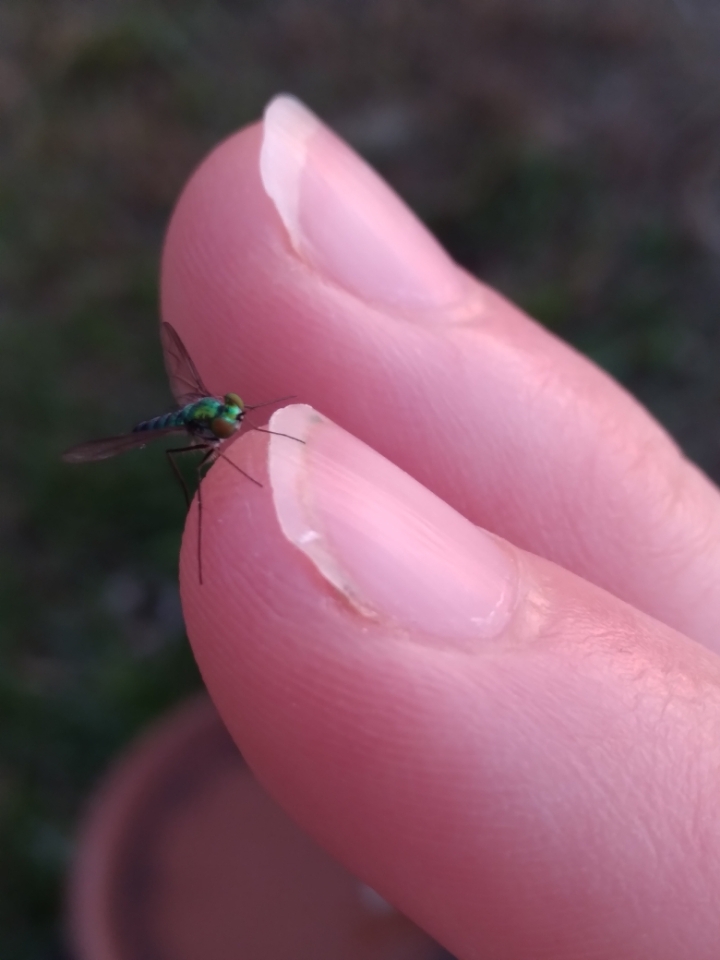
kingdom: Animalia
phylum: Arthropoda
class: Insecta
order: Diptera
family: Dolichopodidae
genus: Condylostylus
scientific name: Condylostylus longicornis
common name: Long-legged fly
